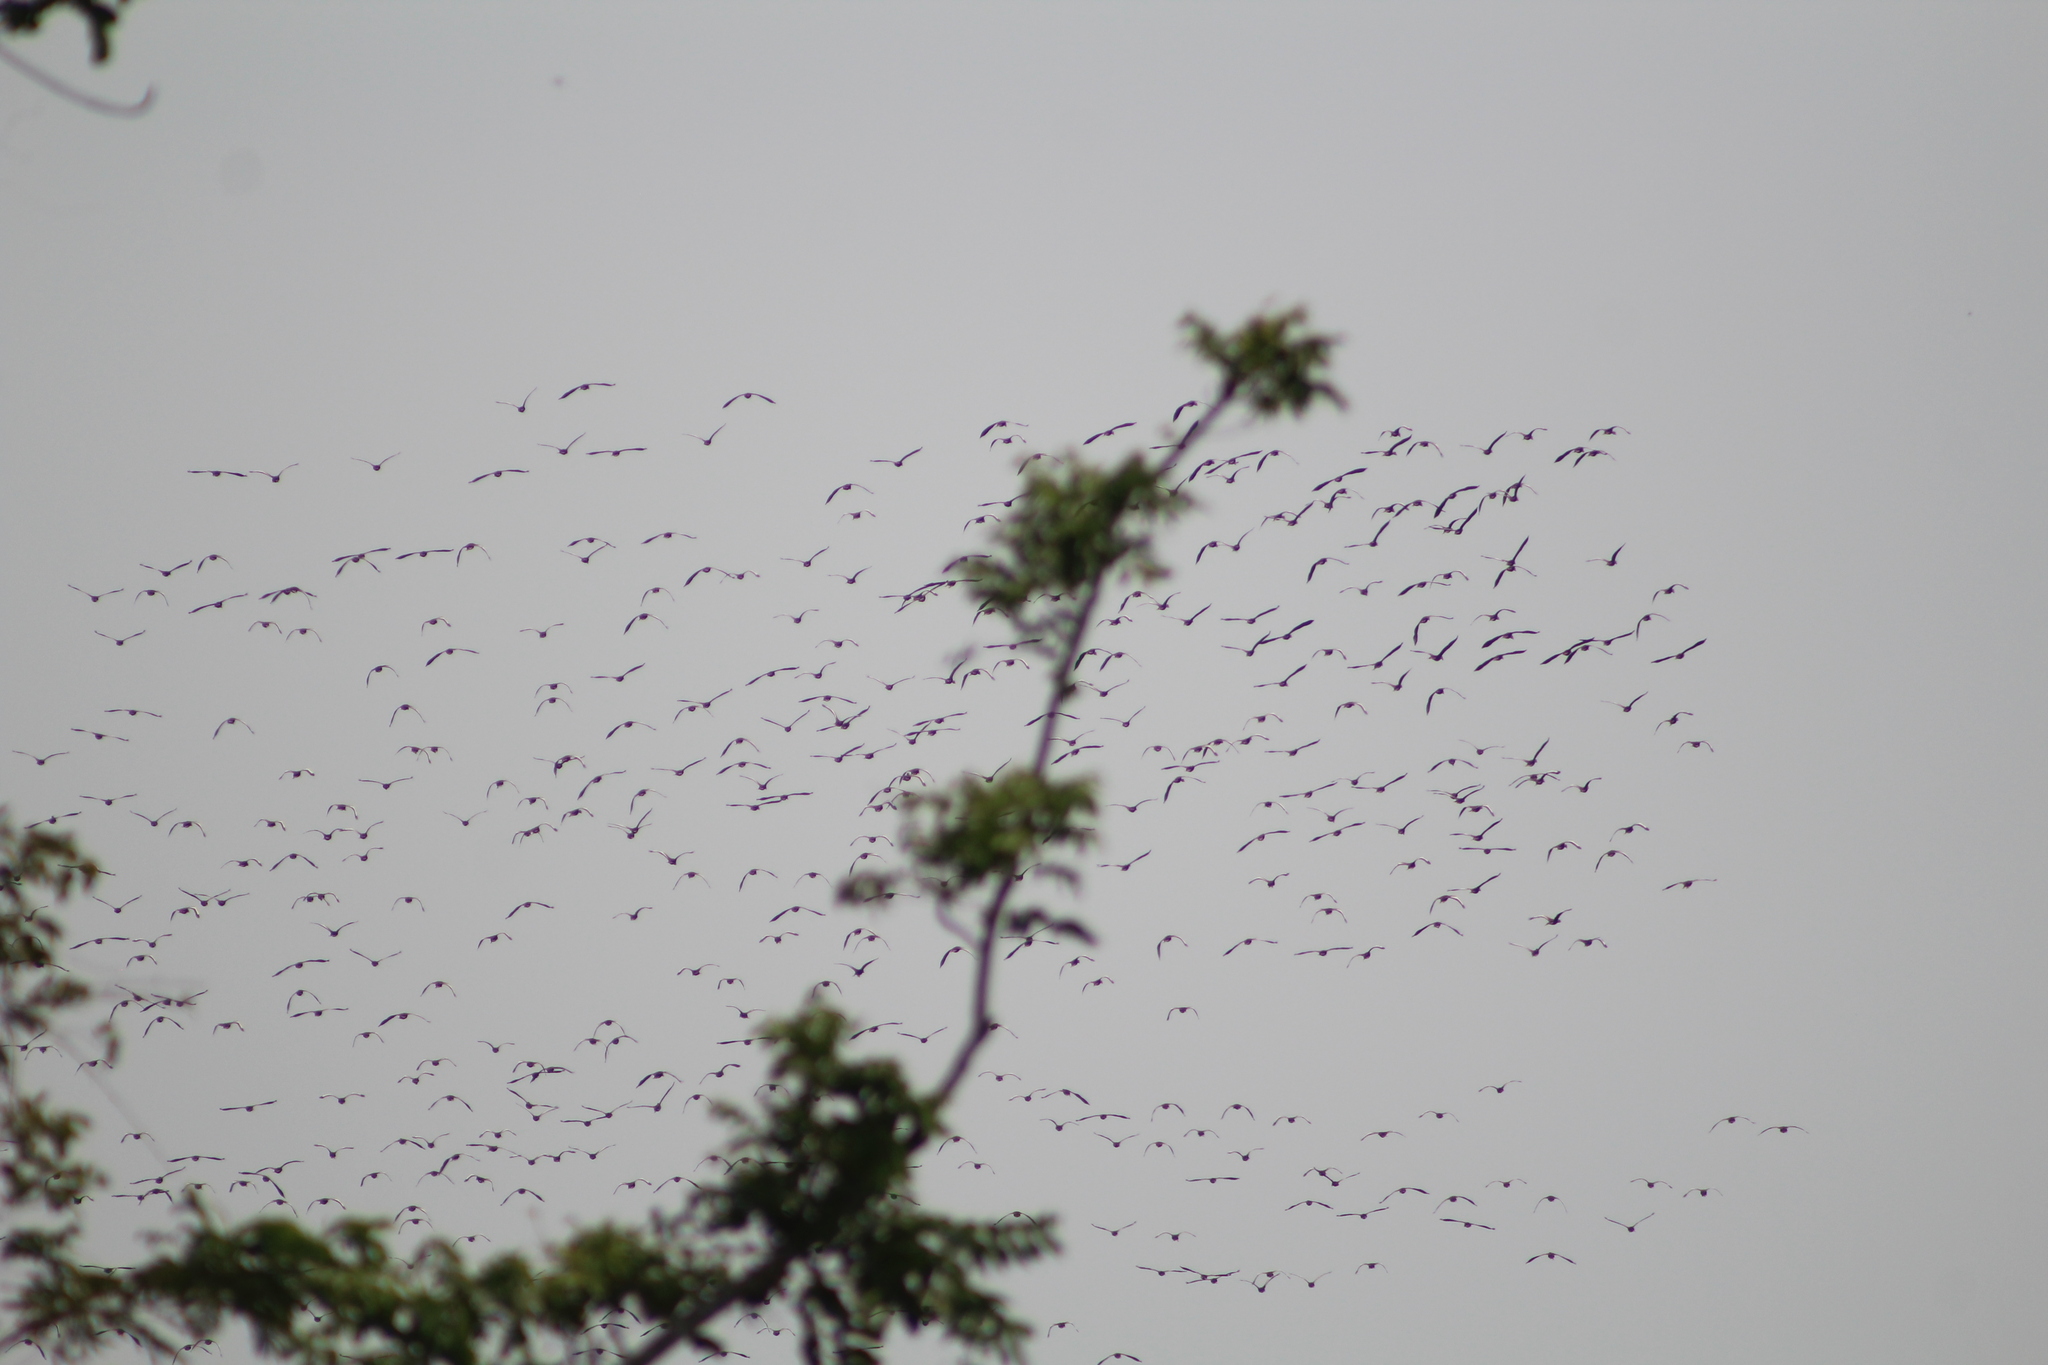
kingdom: Animalia
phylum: Chordata
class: Aves
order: Anseriformes
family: Anatidae
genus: Dendrocygna
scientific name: Dendrocygna autumnalis
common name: Black-bellied whistling duck
